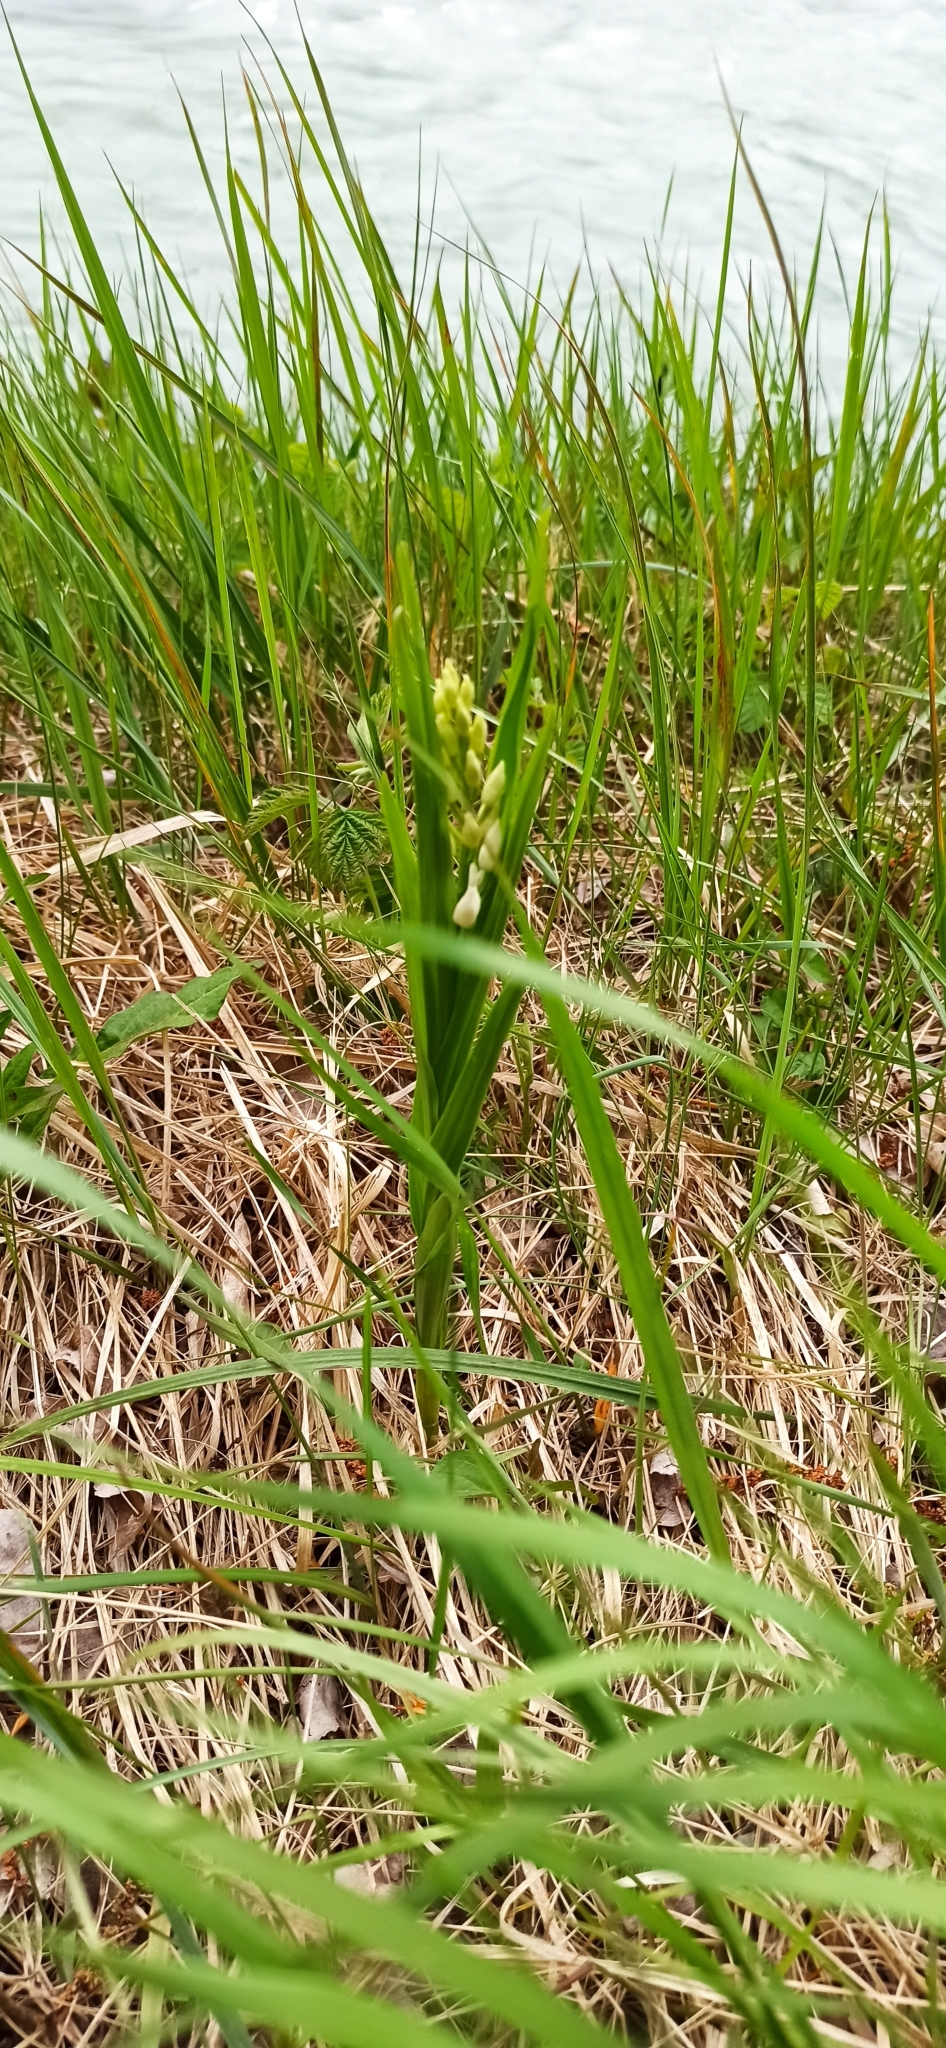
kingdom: Plantae
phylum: Tracheophyta
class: Liliopsida
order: Asparagales
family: Orchidaceae
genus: Cephalanthera
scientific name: Cephalanthera longifolia
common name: Narrow-leaved helleborine
